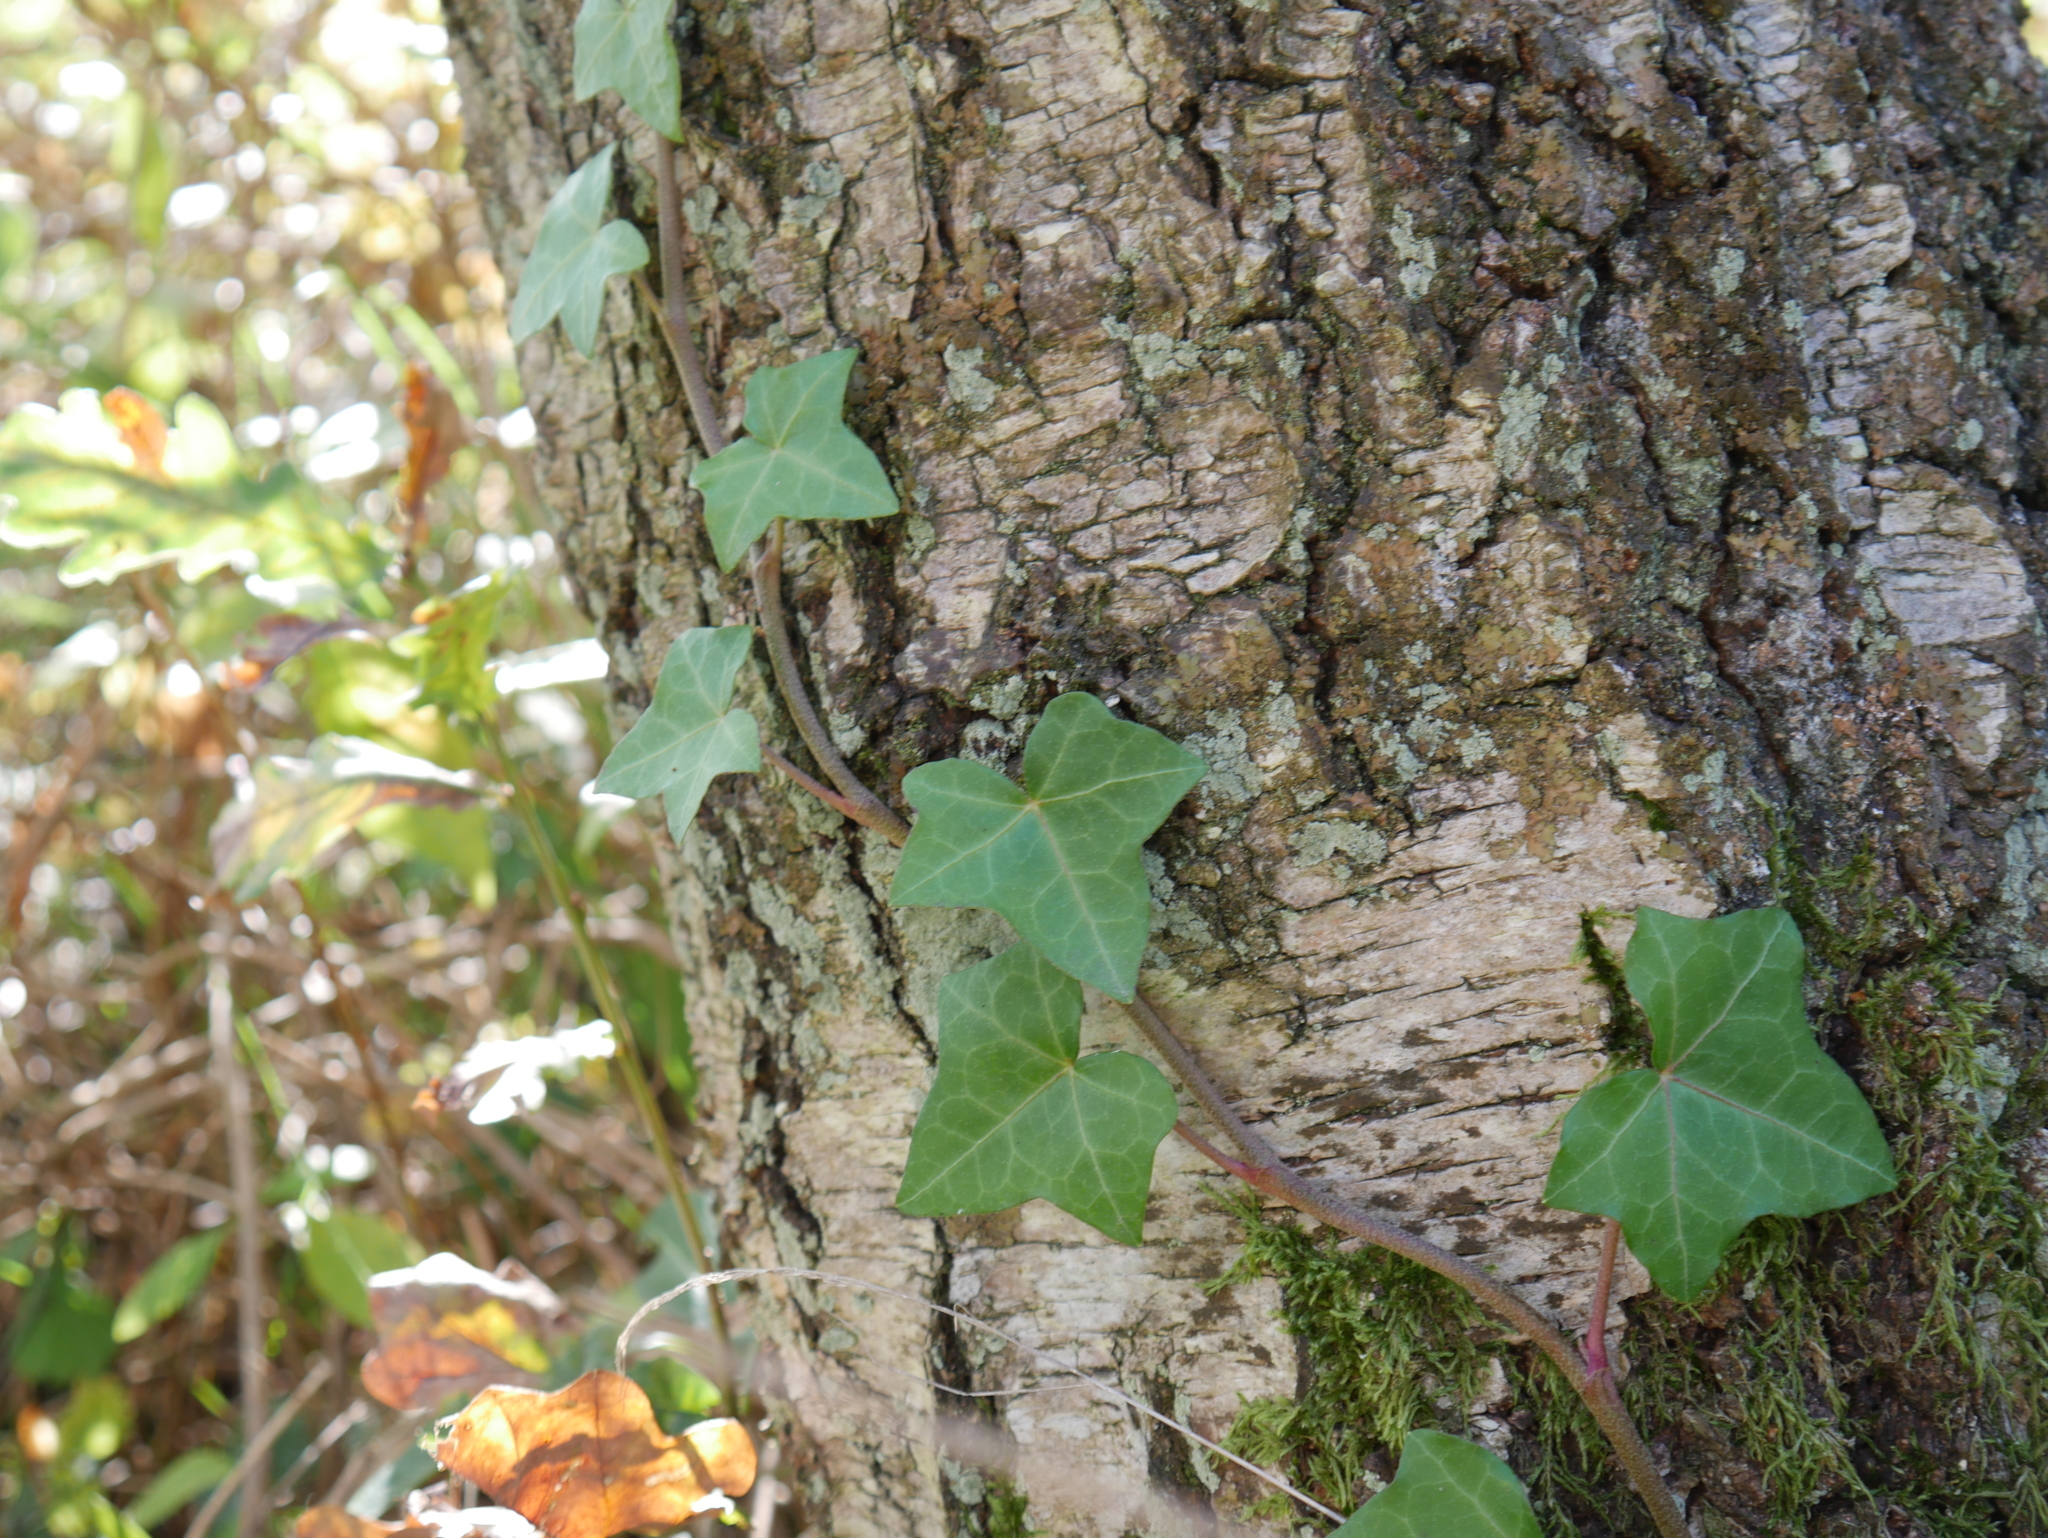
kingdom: Plantae
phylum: Tracheophyta
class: Magnoliopsida
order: Apiales
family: Araliaceae
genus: Hedera
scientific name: Hedera helix
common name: Ivy
